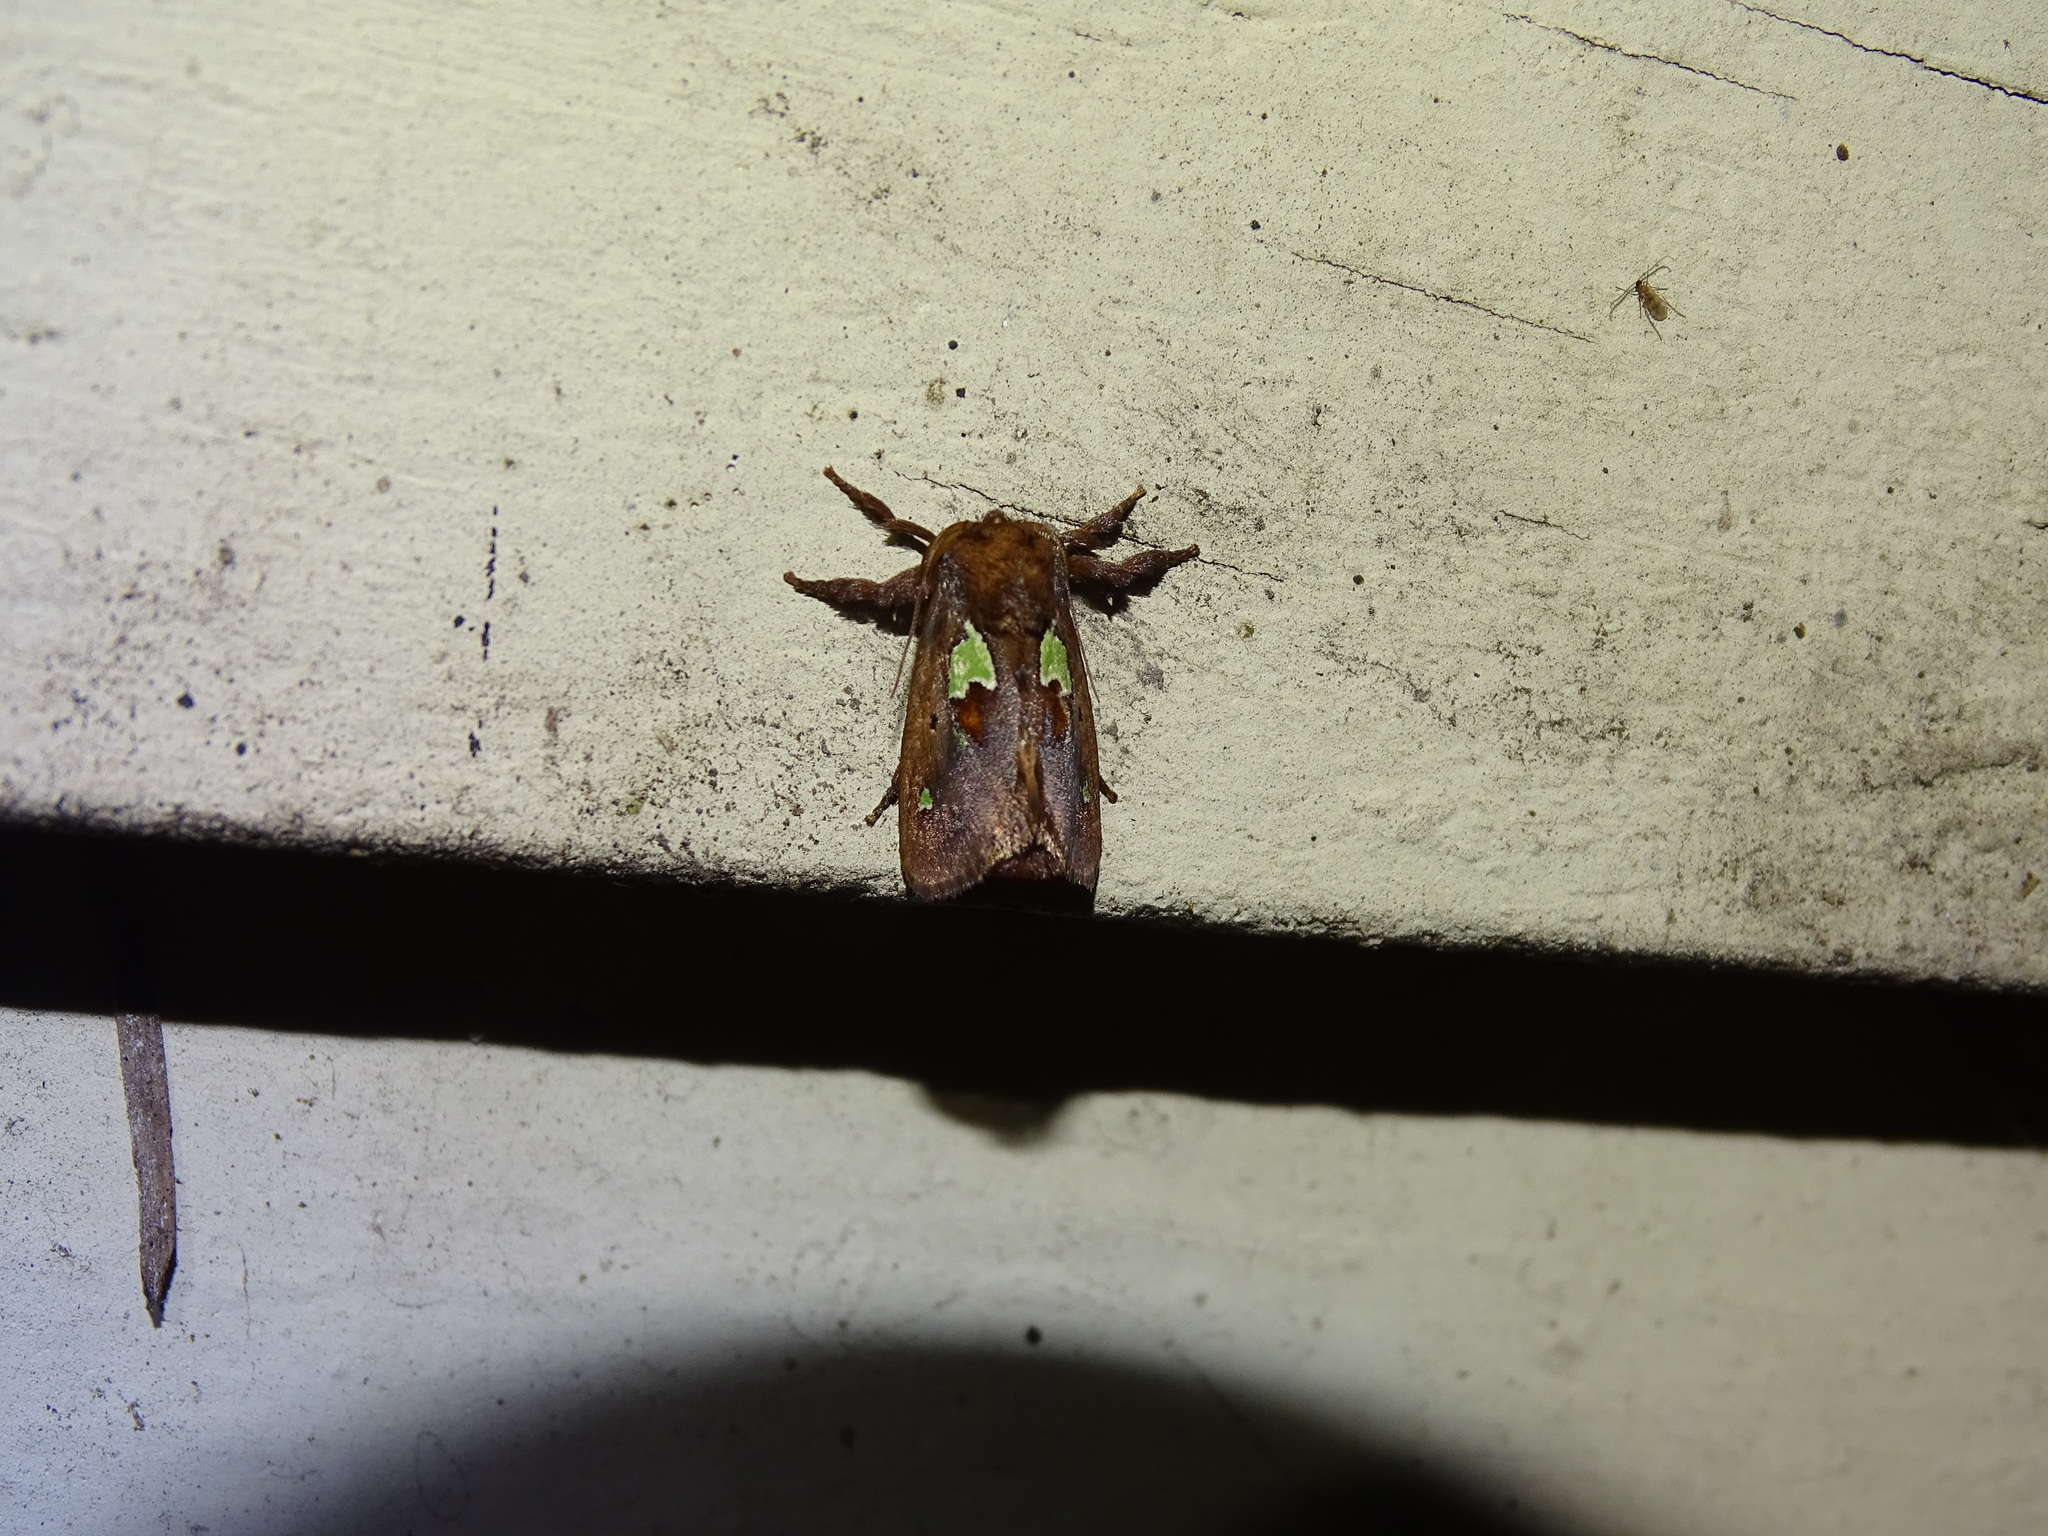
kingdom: Animalia
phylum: Arthropoda
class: Insecta
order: Lepidoptera
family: Limacodidae
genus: Euclea
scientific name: Euclea delphinii
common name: Spiny oak-slug moth
